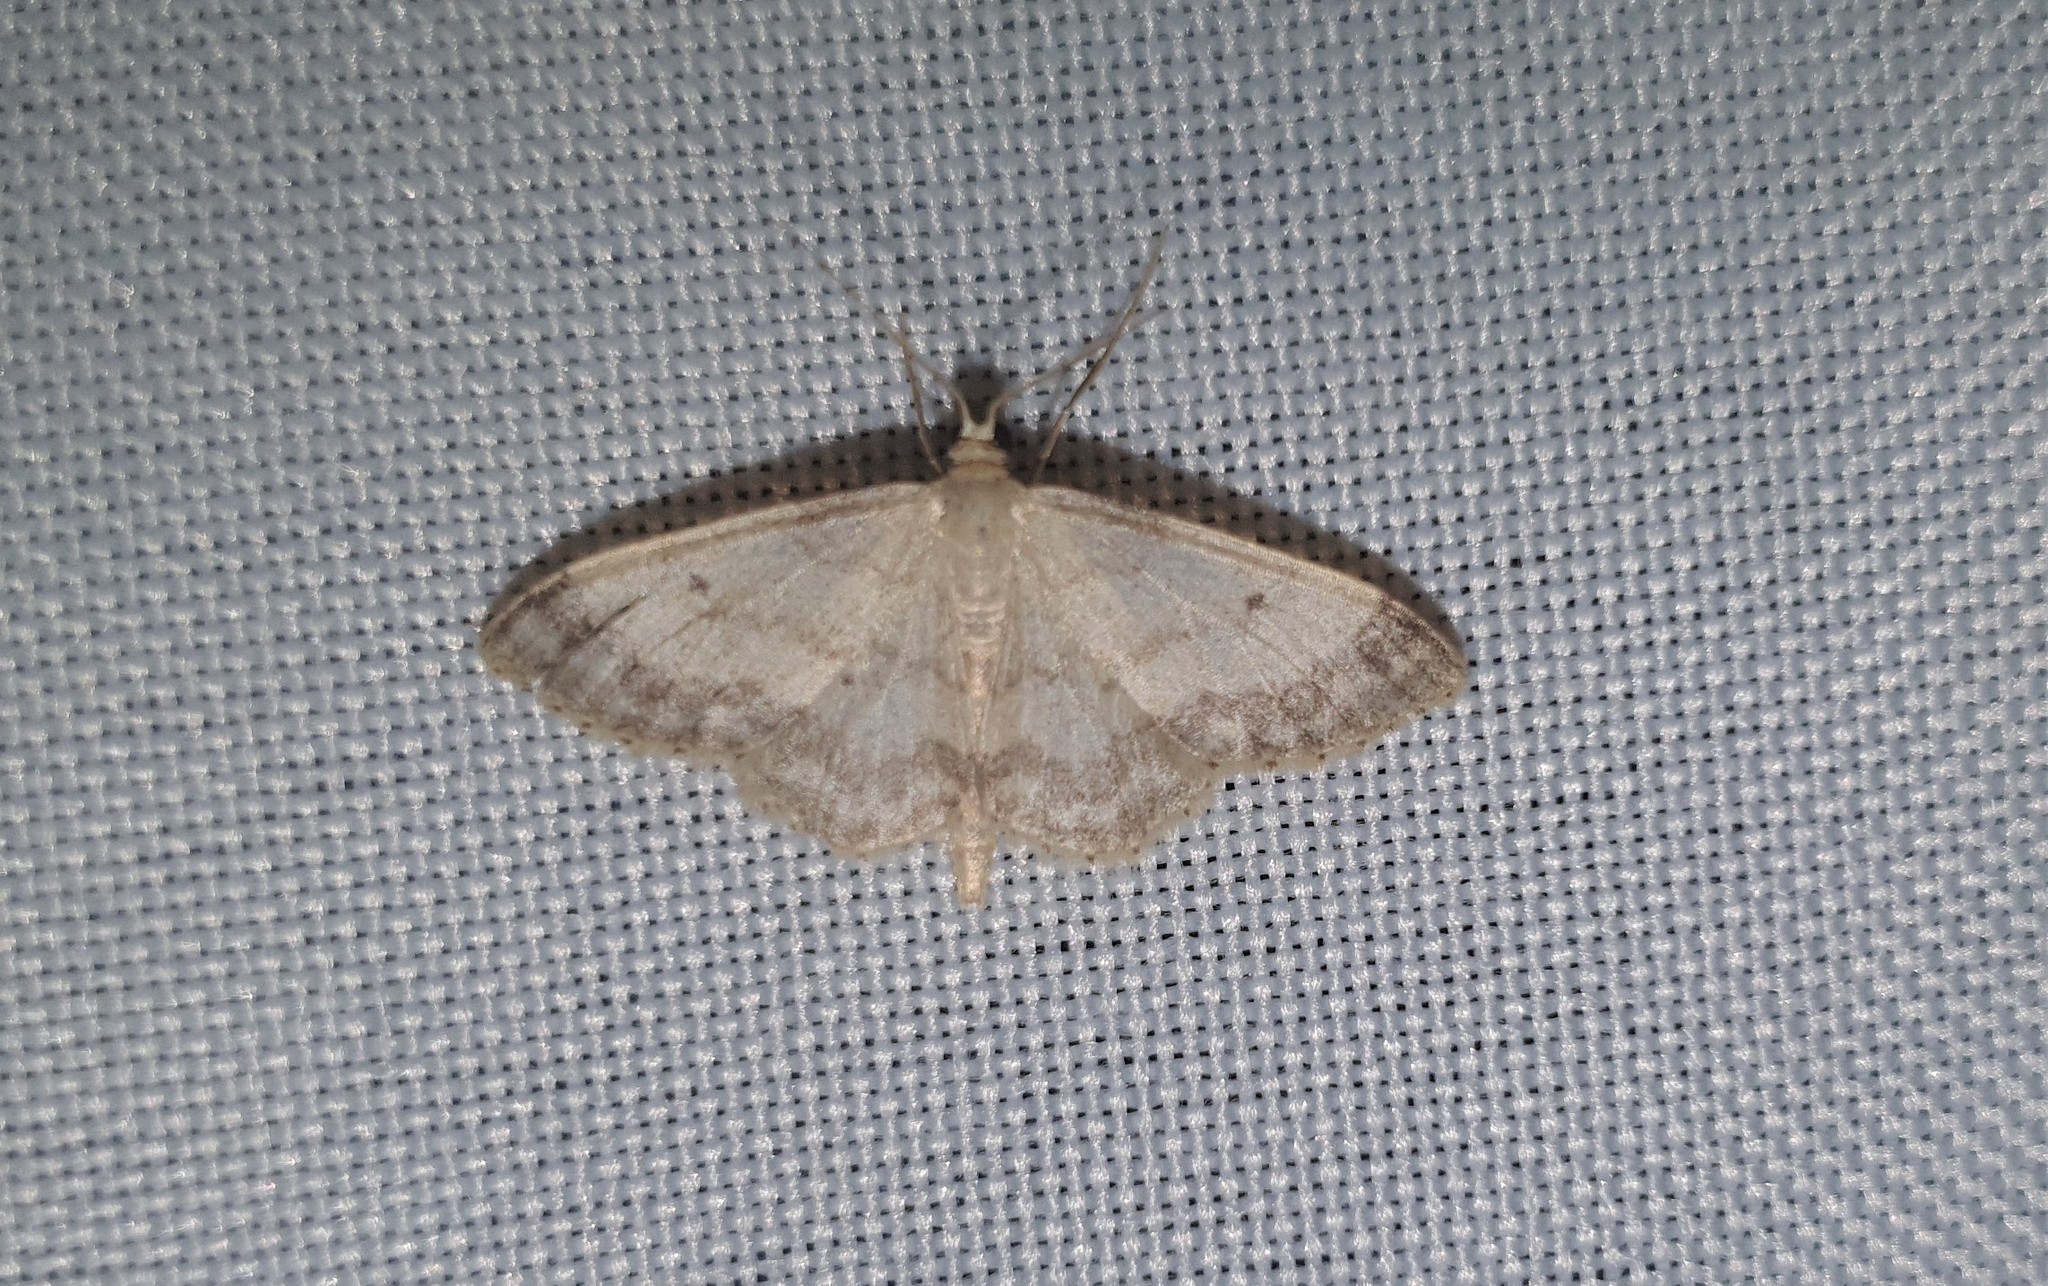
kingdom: Animalia
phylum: Arthropoda
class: Insecta
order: Lepidoptera
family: Geometridae
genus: Idaea
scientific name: Idaea biselata
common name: Small fan-footed wave
